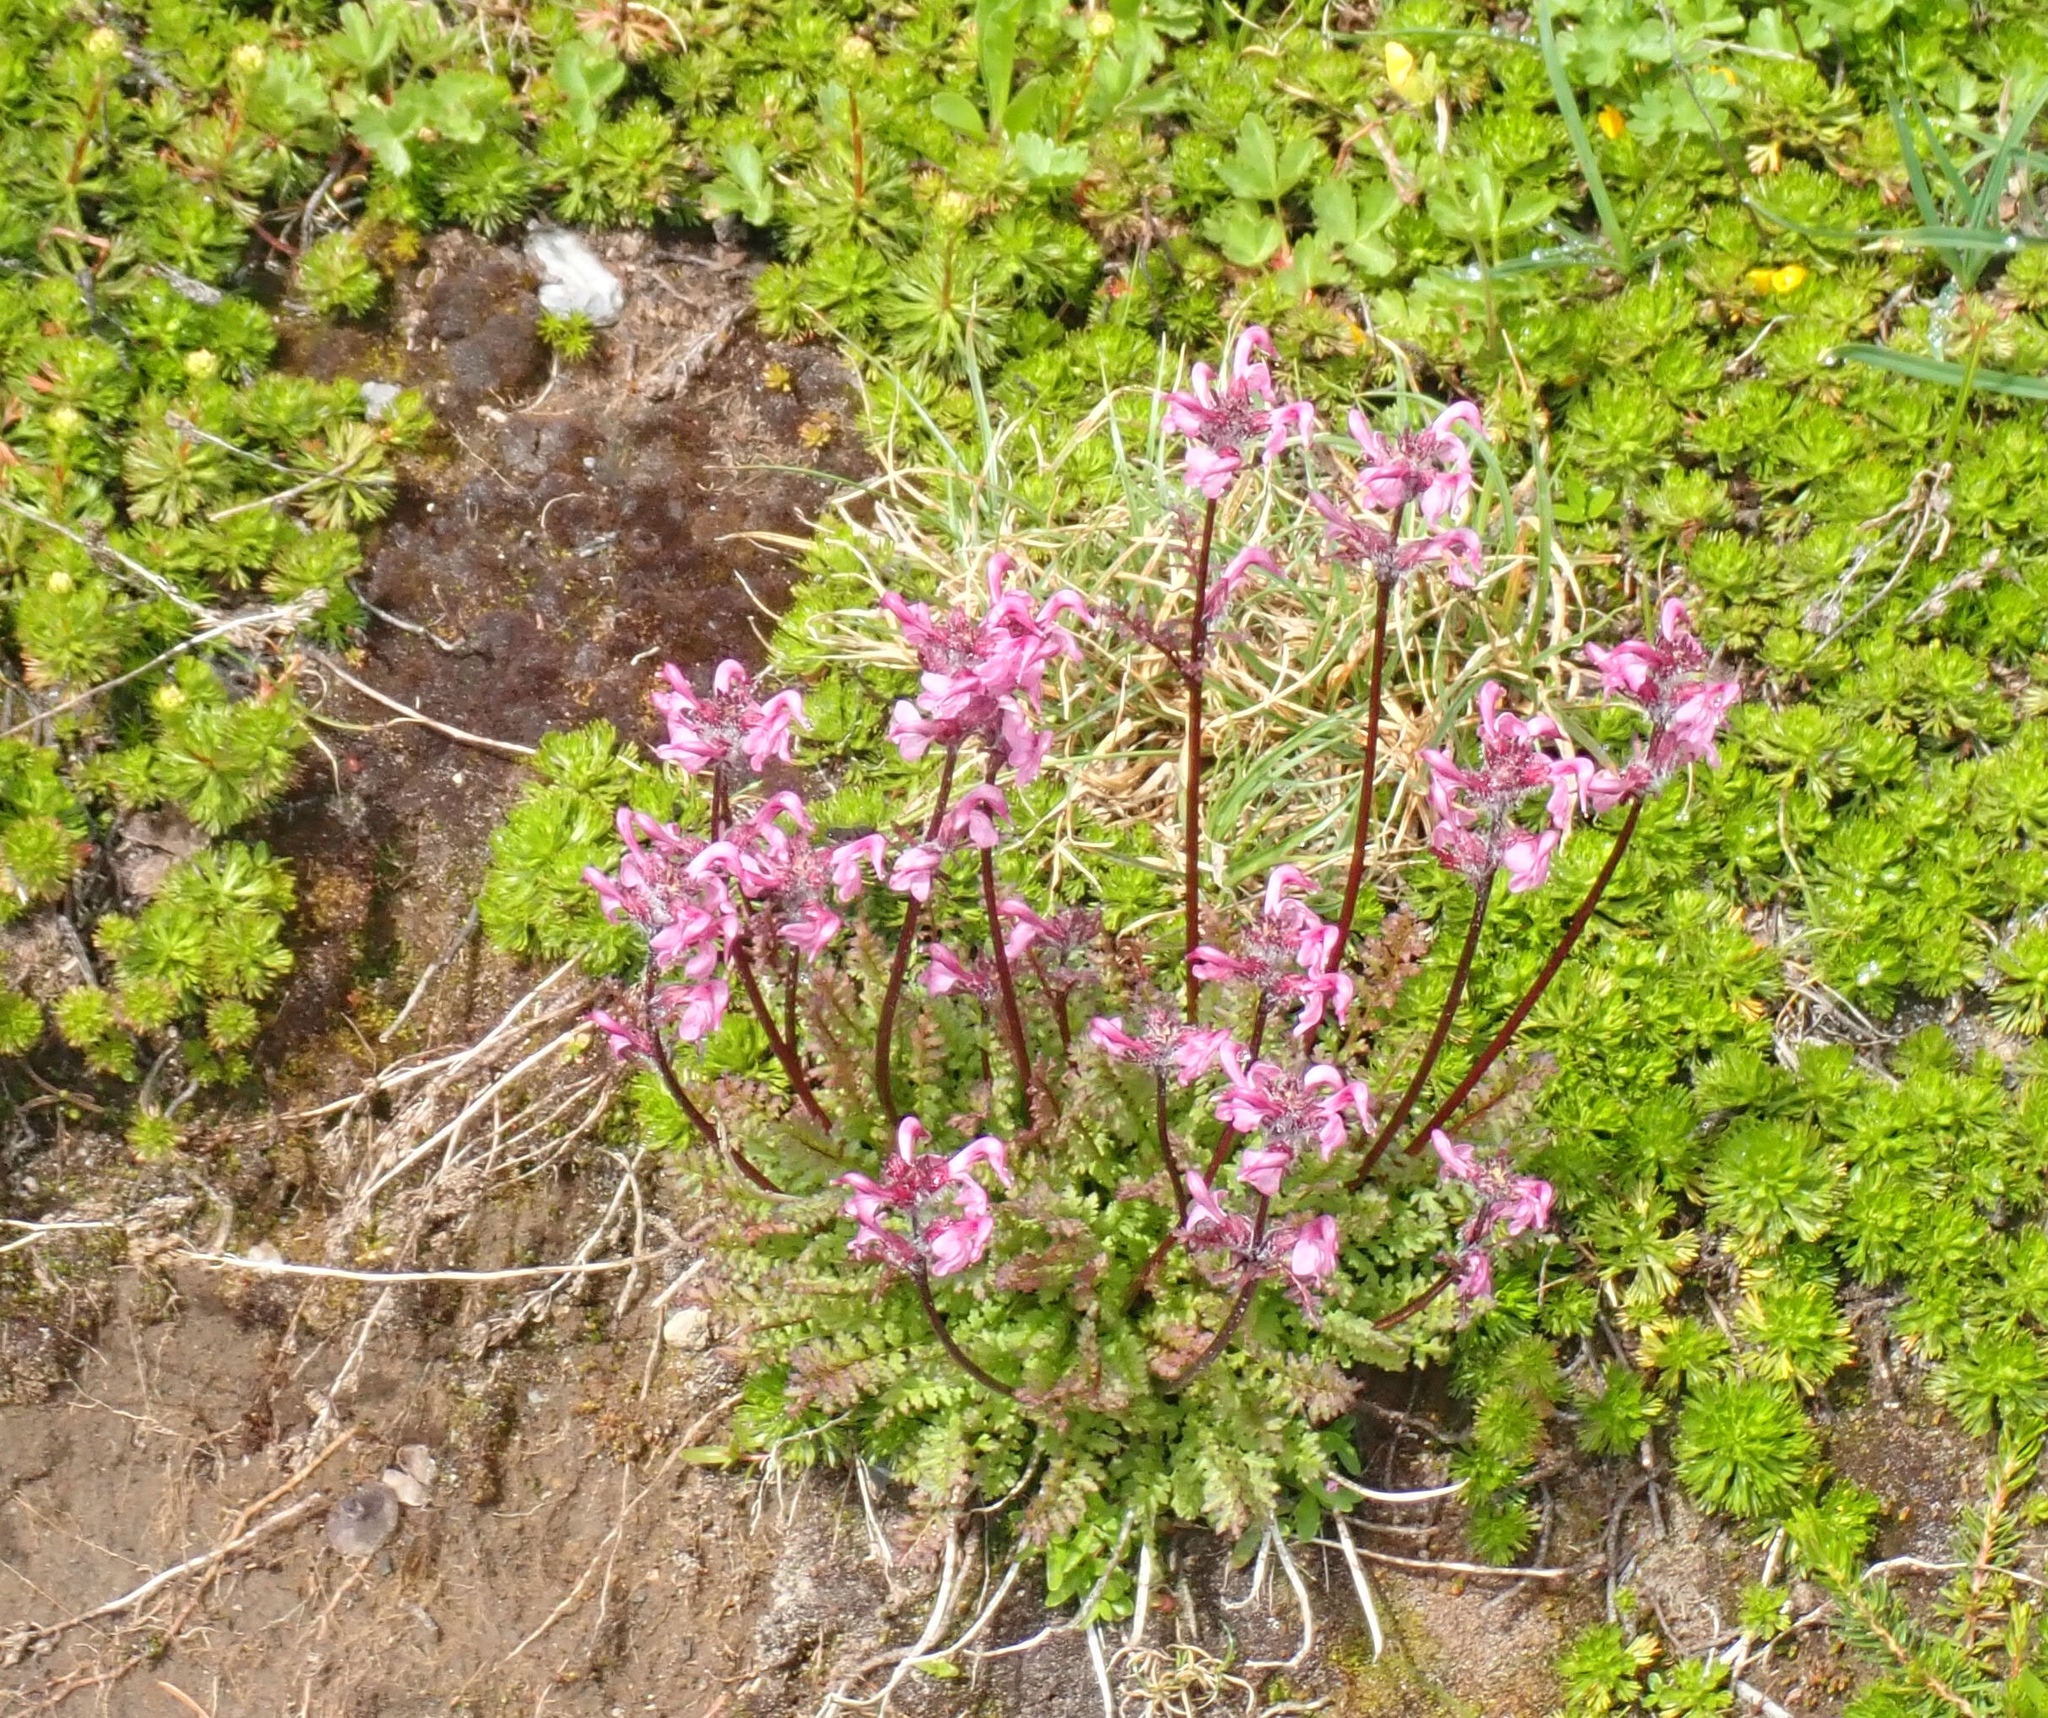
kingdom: Plantae
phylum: Tracheophyta
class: Magnoliopsida
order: Lamiales
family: Orobanchaceae
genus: Pedicularis
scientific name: Pedicularis ornithorhynchos
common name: Bird's-beak lousewort
